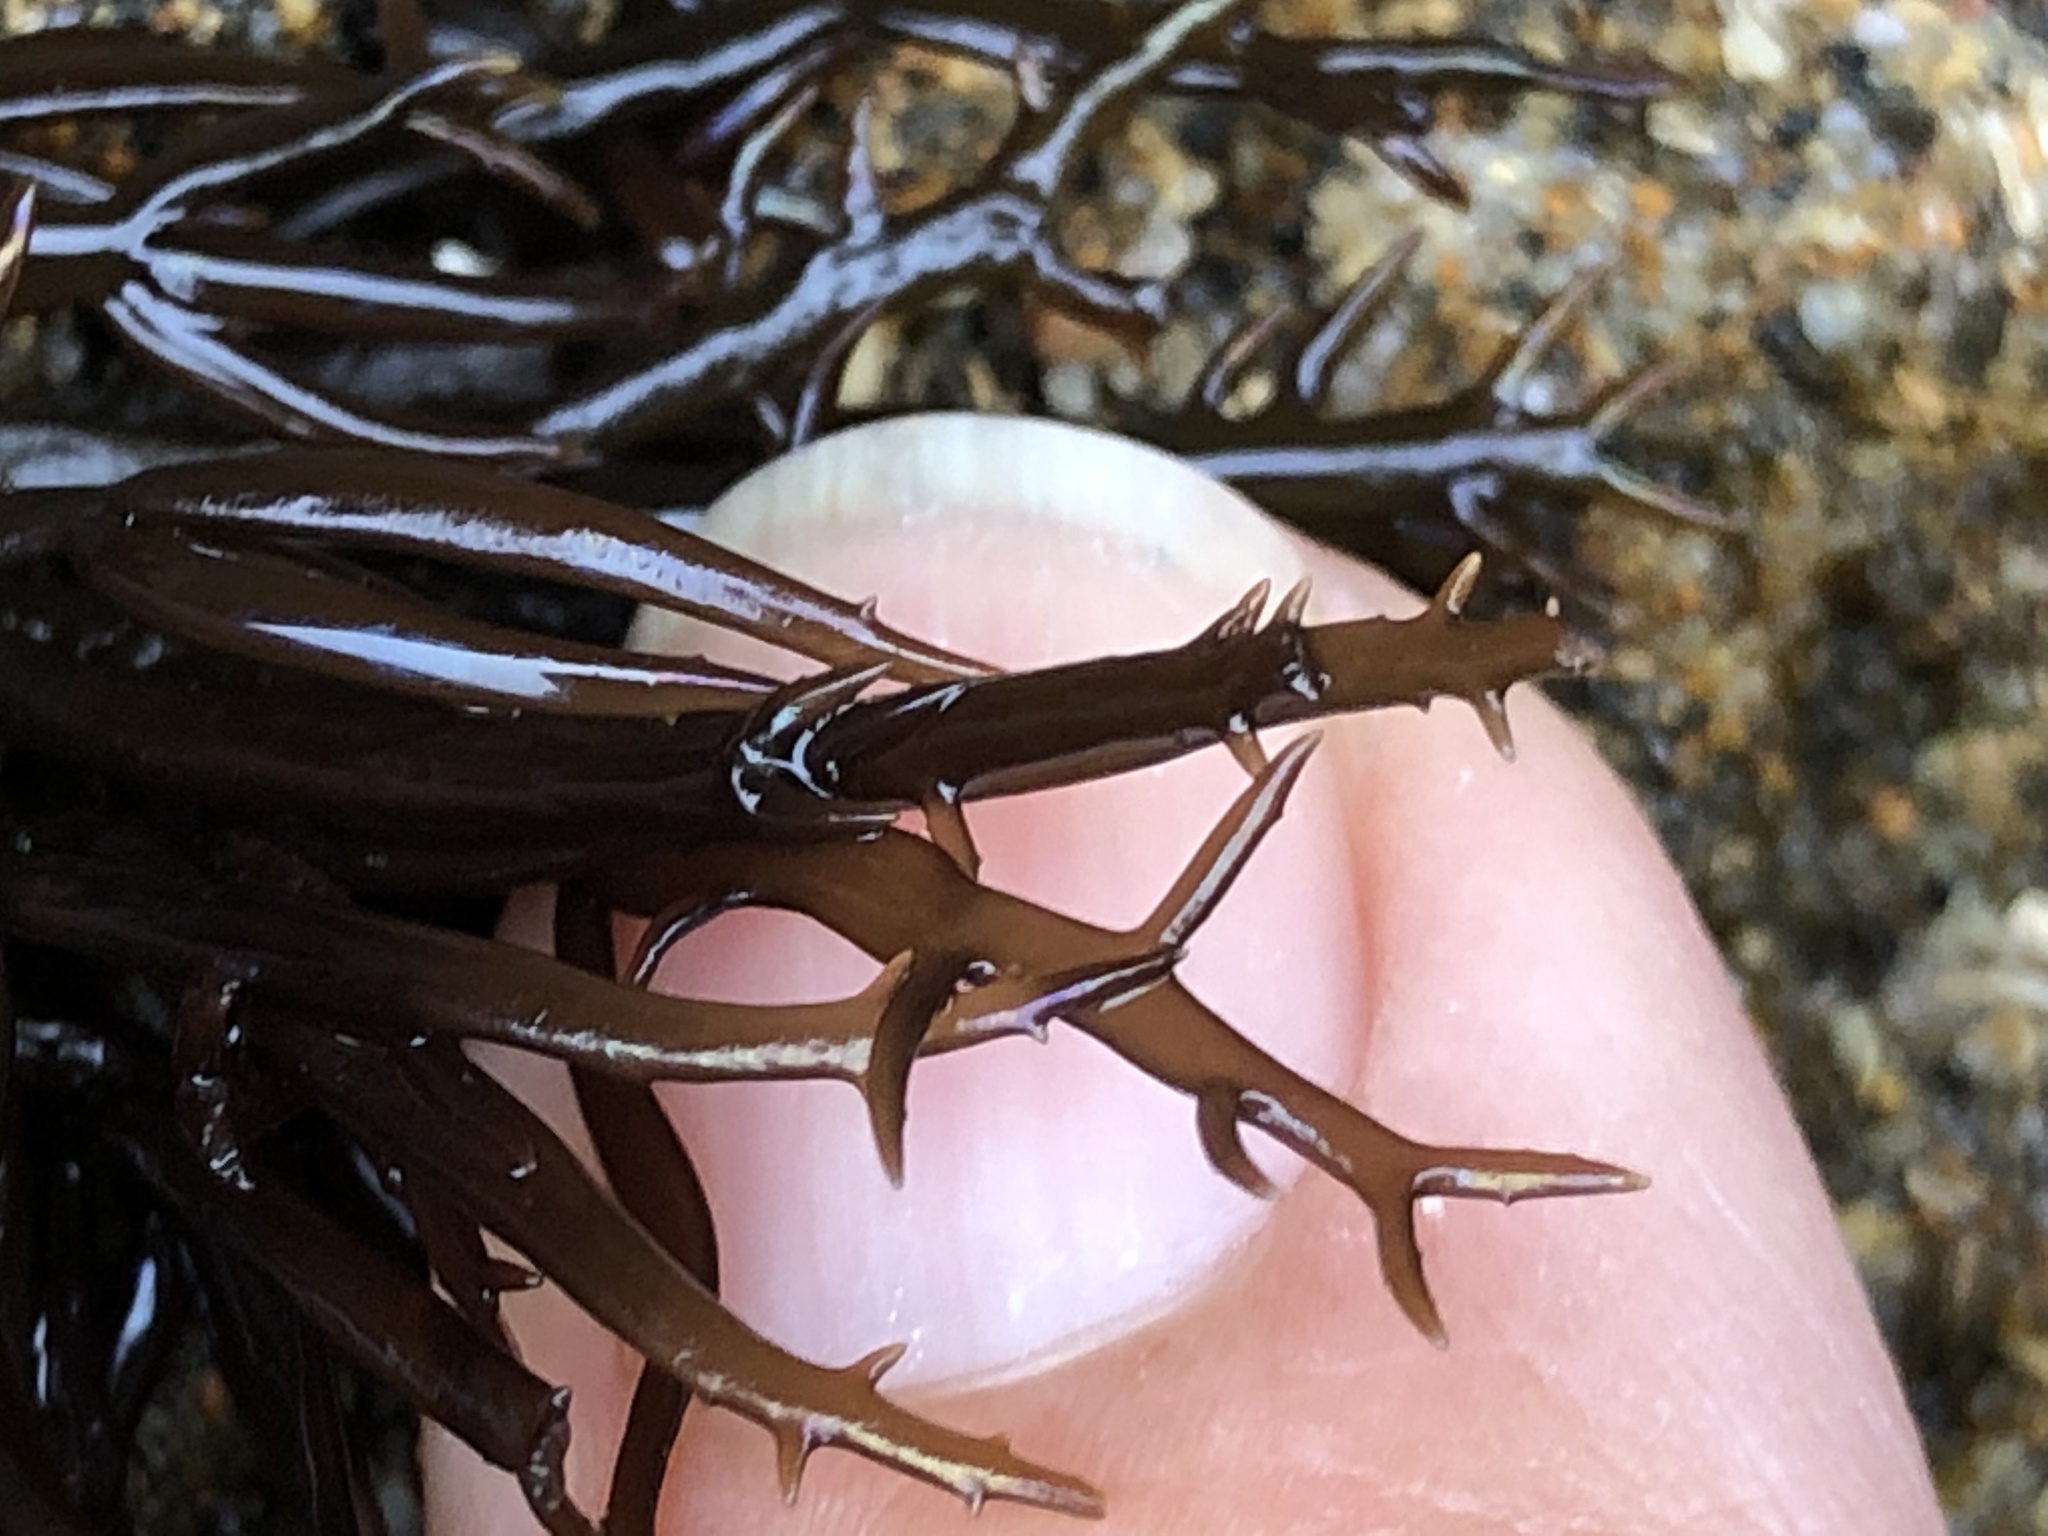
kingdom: Plantae
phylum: Rhodophyta
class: Florideophyceae
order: Gigartinales
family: Gigartinaceae
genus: Chondracanthus
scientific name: Chondracanthus canaliculatus
